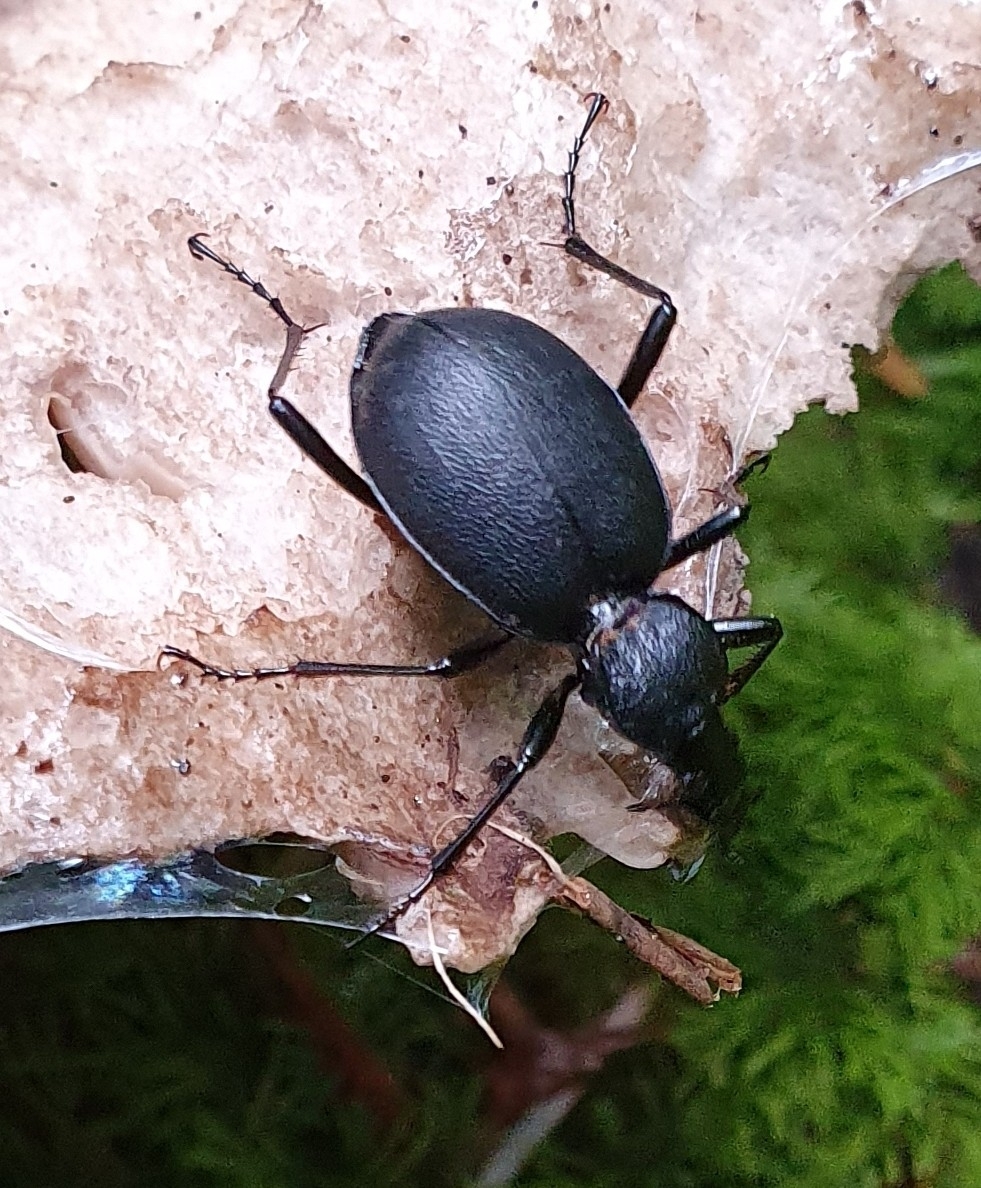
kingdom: Animalia
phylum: Arthropoda
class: Insecta
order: Coleoptera
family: Carabidae
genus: Cychrus
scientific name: Cychrus caraboides
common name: Snail hunter
